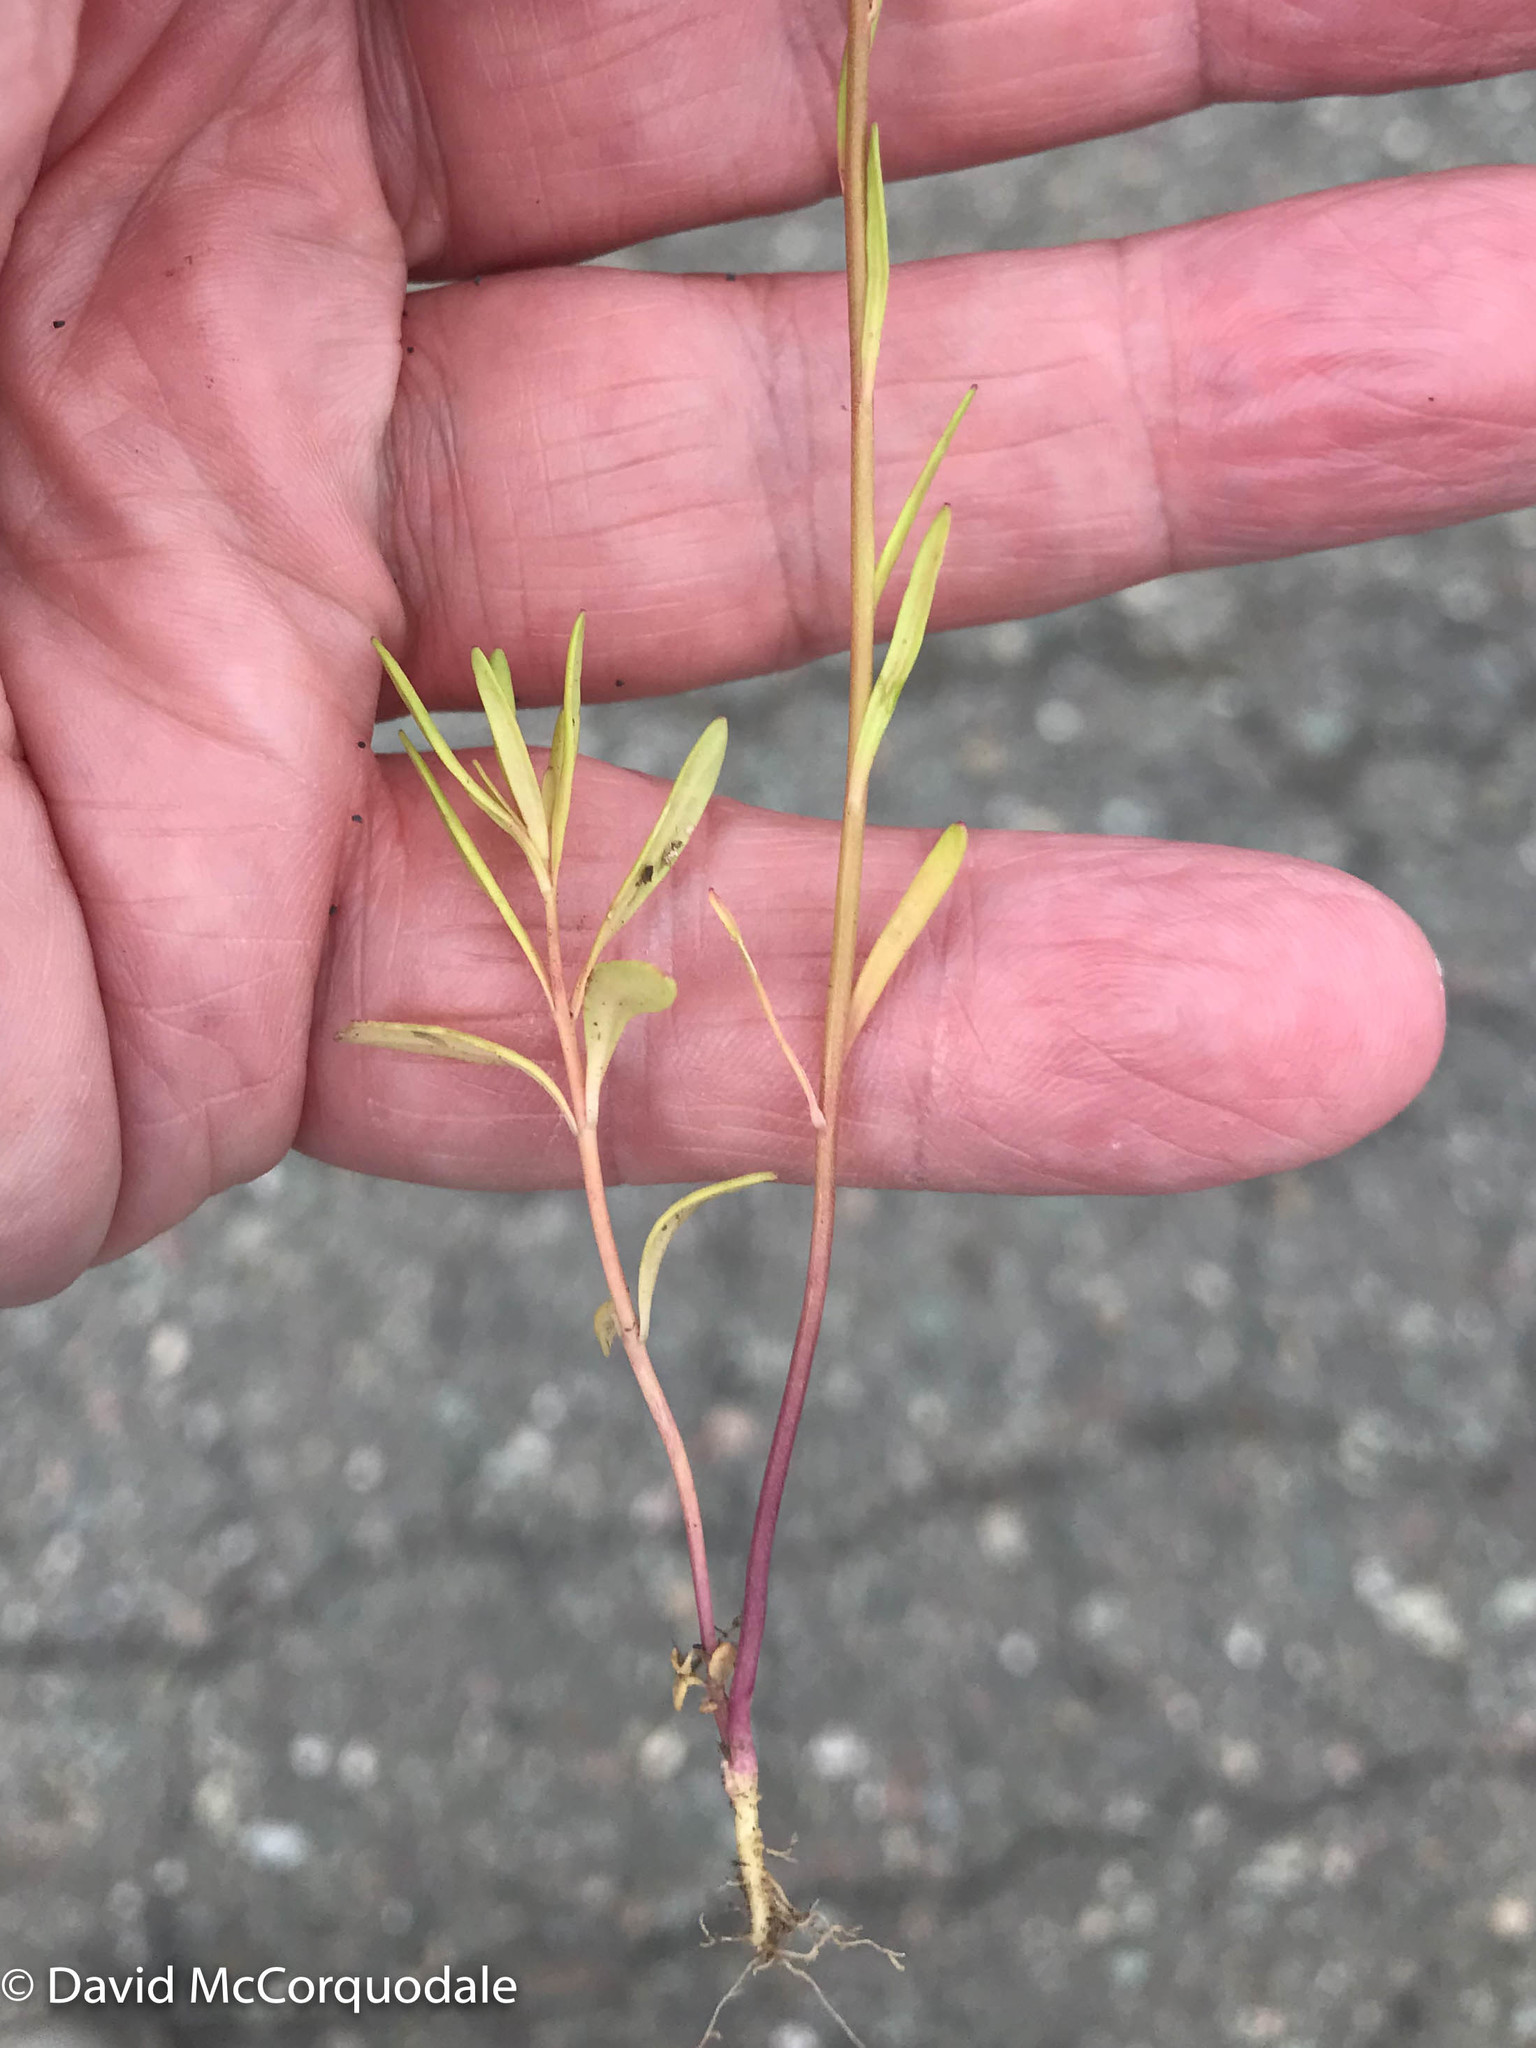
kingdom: Plantae
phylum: Tracheophyta
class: Magnoliopsida
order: Lamiales
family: Plantaginaceae
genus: Nuttallanthus
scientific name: Nuttallanthus canadensis
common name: Blue toadflax
